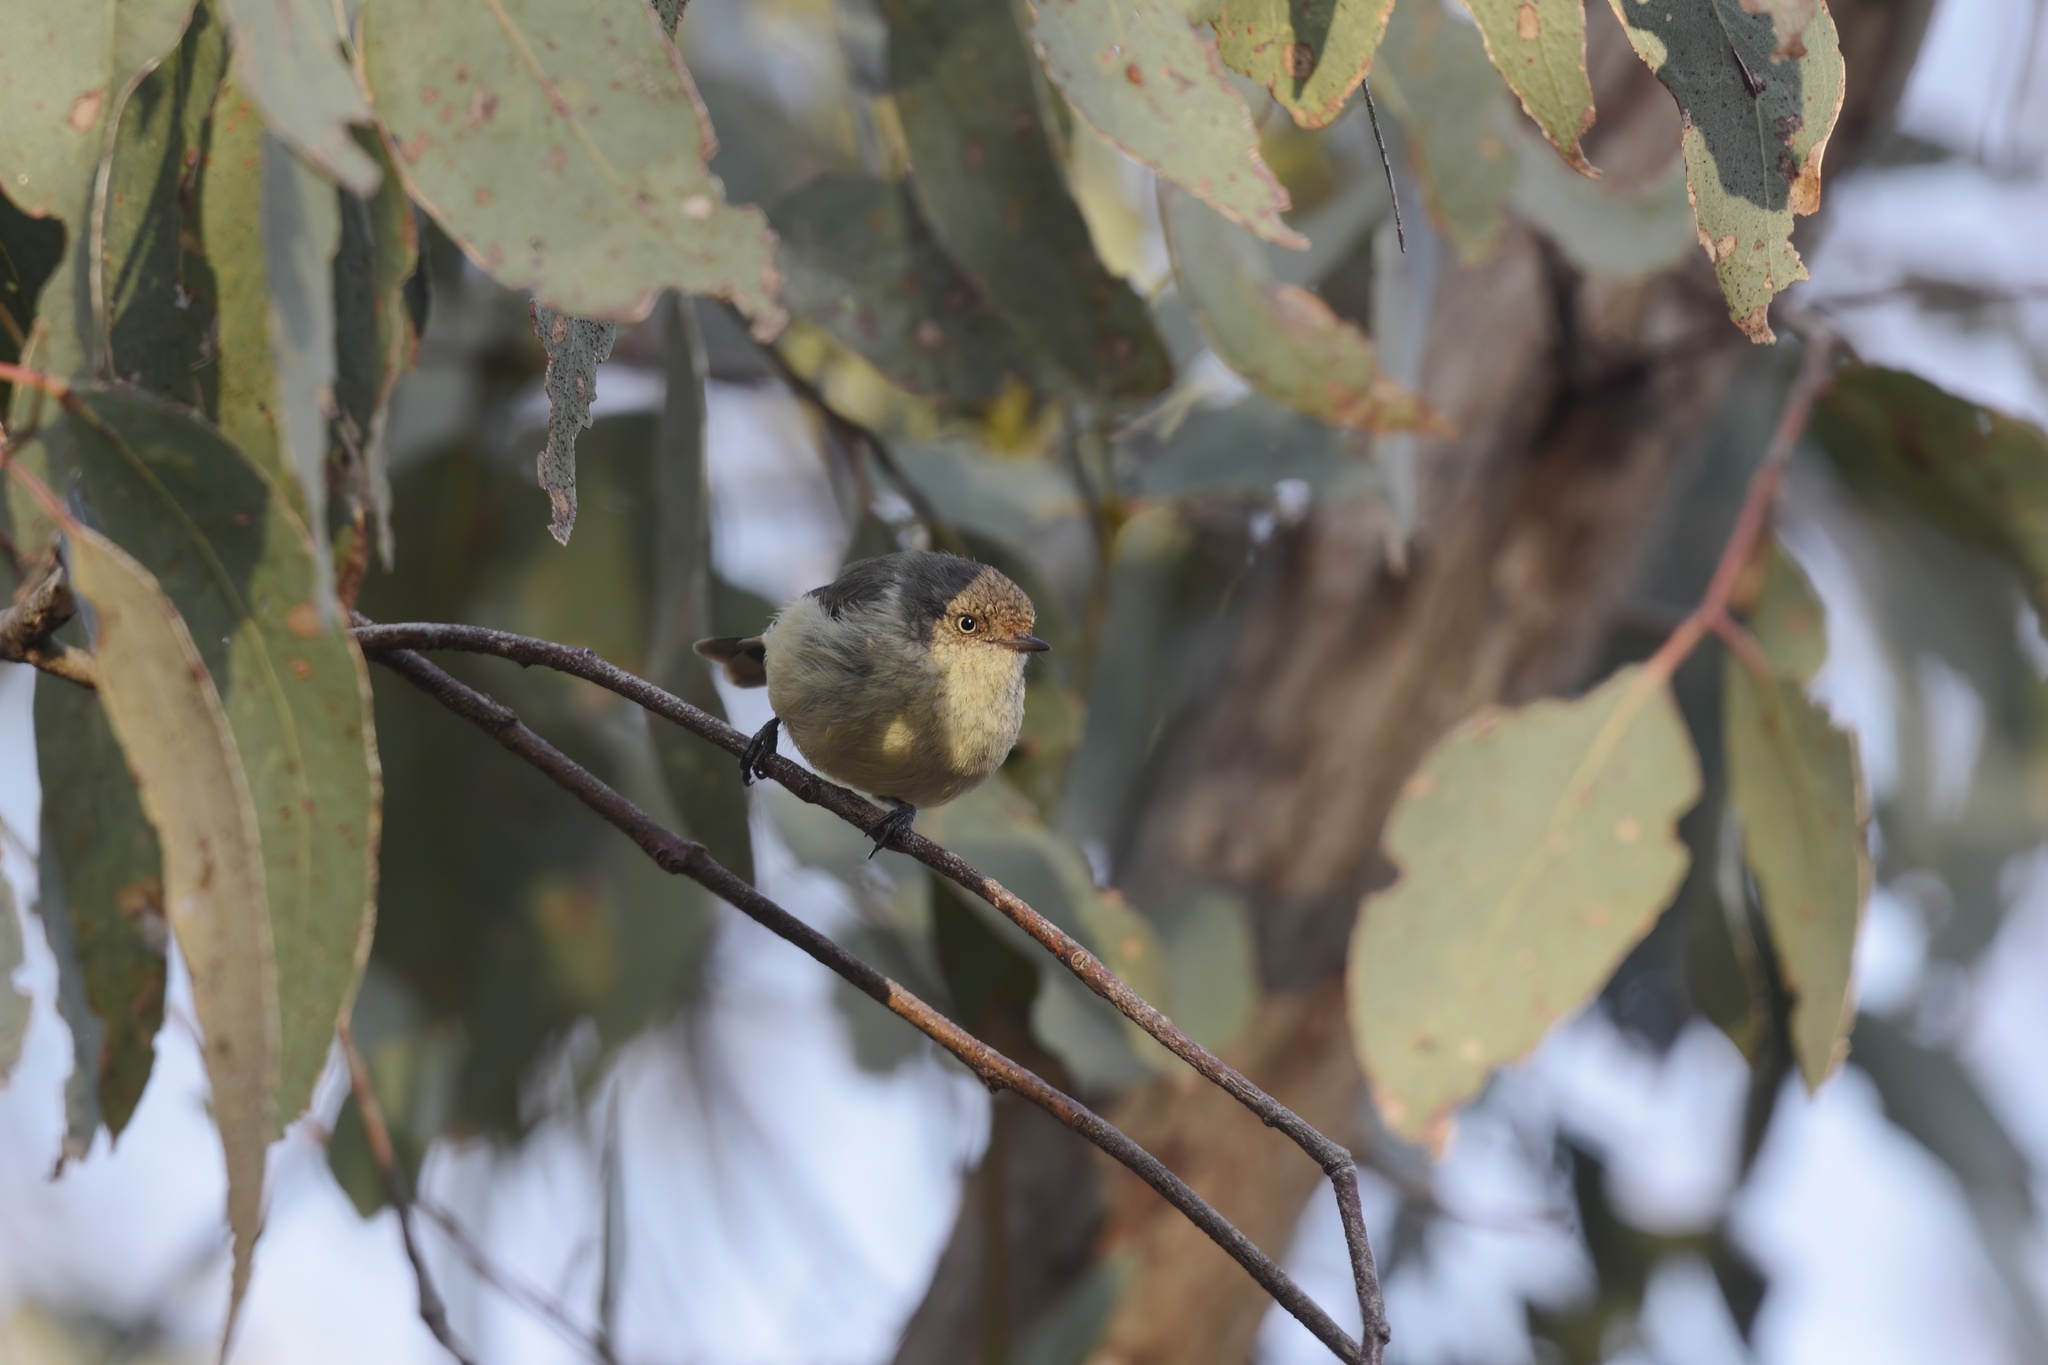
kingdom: Animalia
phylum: Chordata
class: Aves
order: Passeriformes
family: Acanthizidae
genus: Acanthiza
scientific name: Acanthiza reguloides
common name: Buff-rumped thornbill
